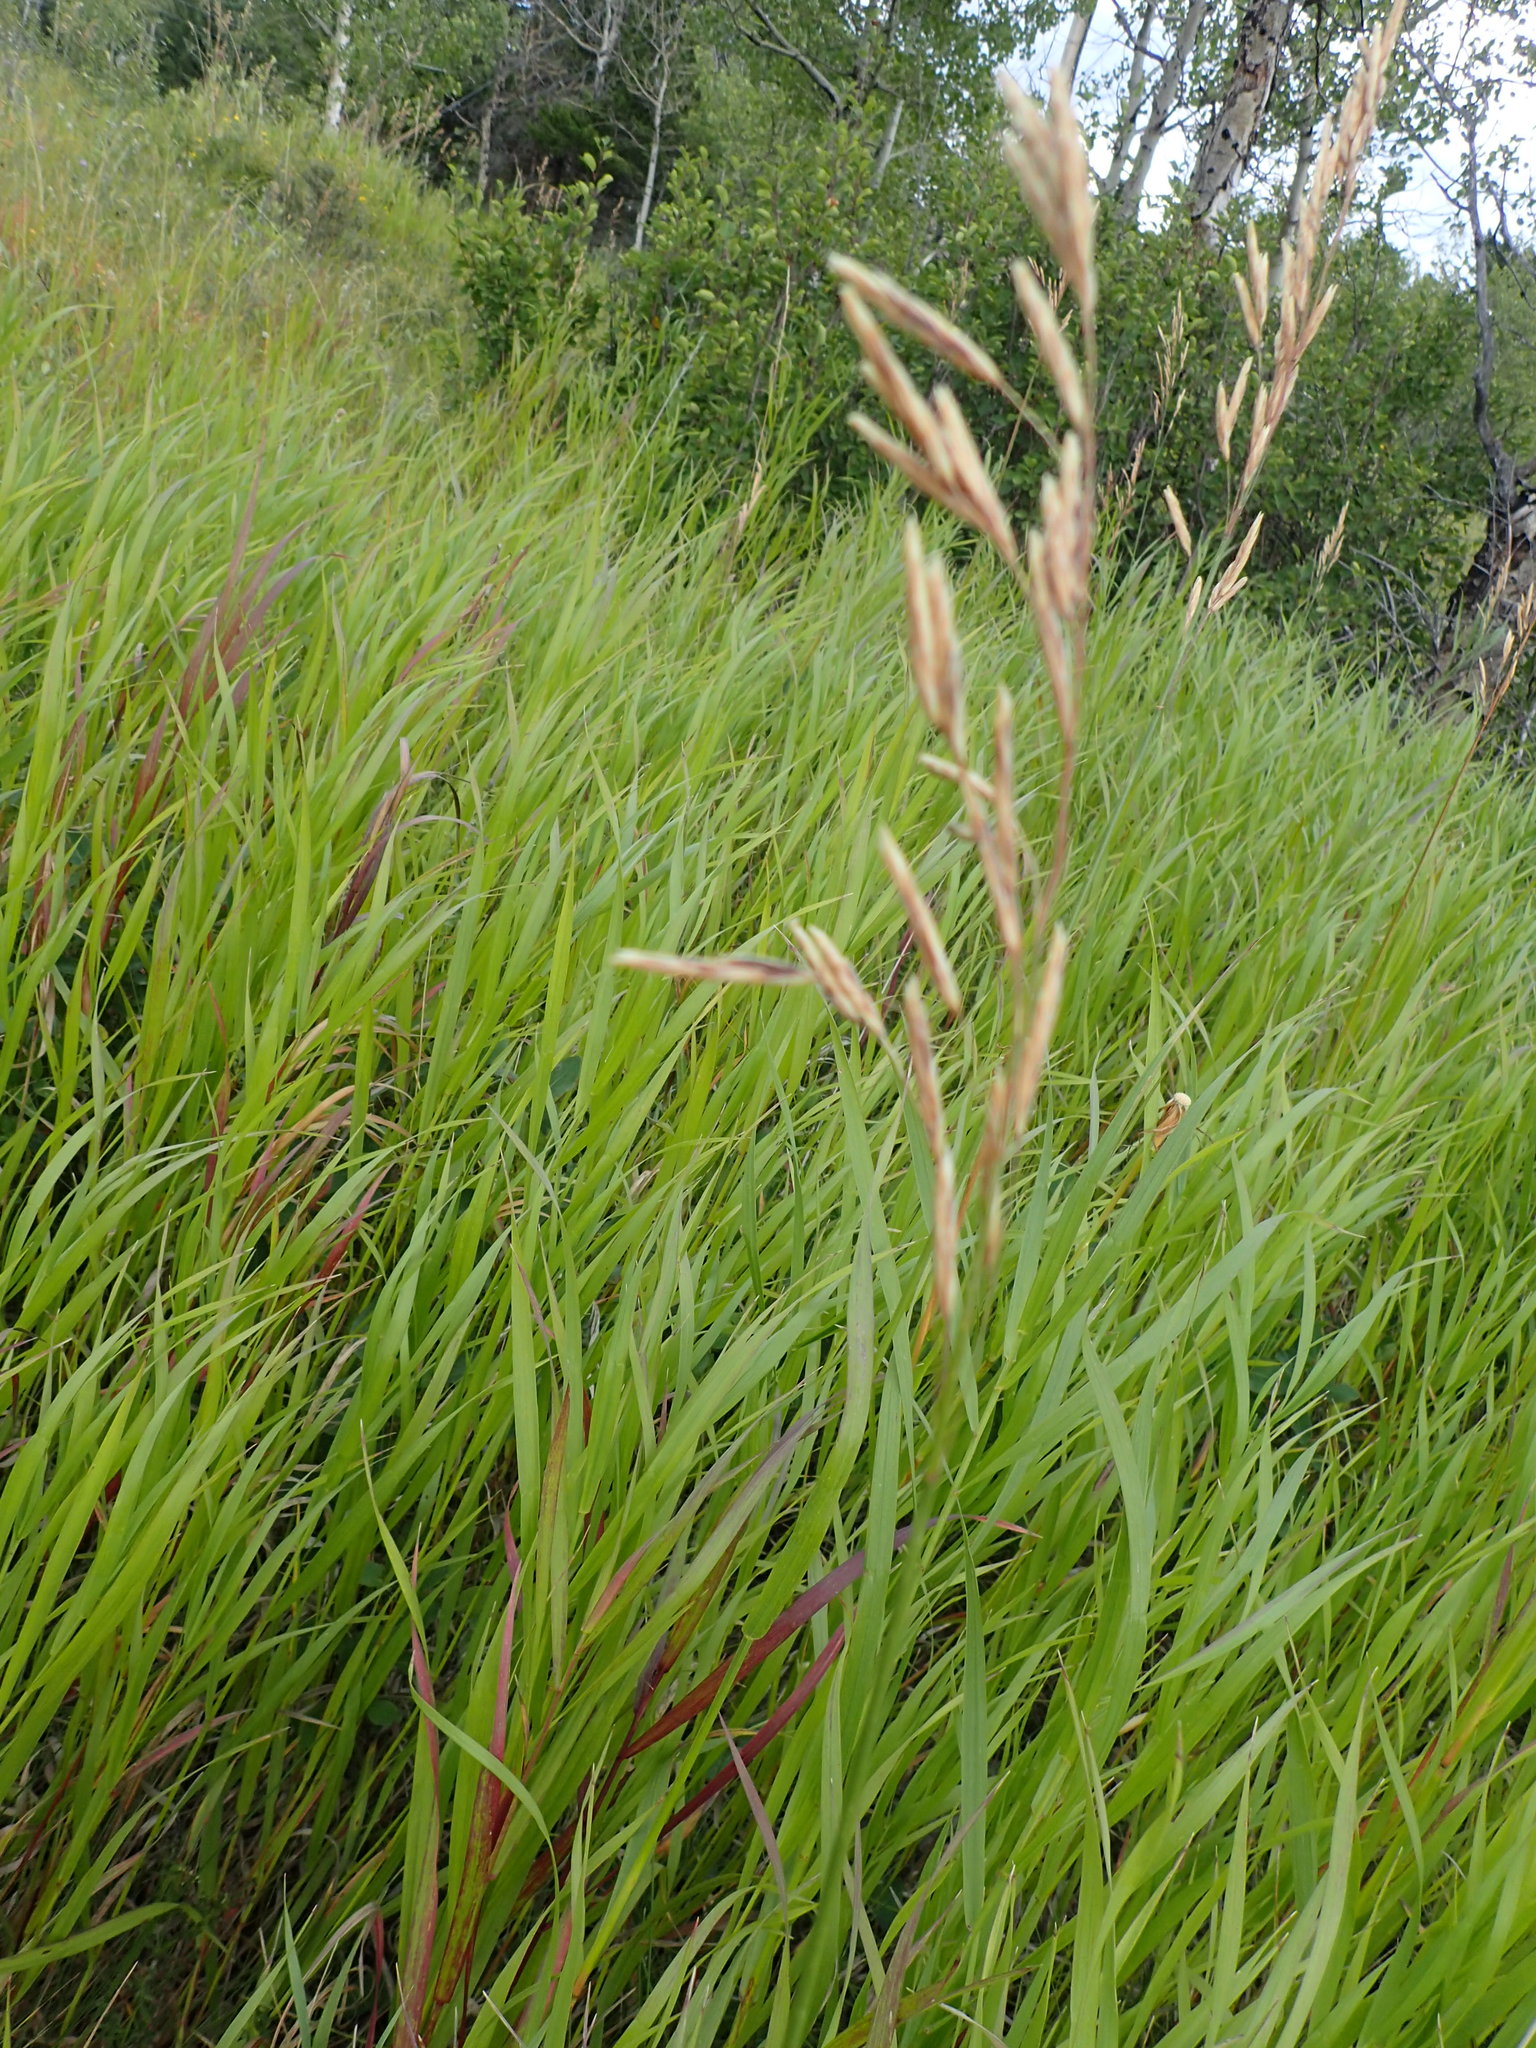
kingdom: Plantae
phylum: Tracheophyta
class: Liliopsida
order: Poales
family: Poaceae
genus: Bromus
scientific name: Bromus inermis
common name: Smooth brome
